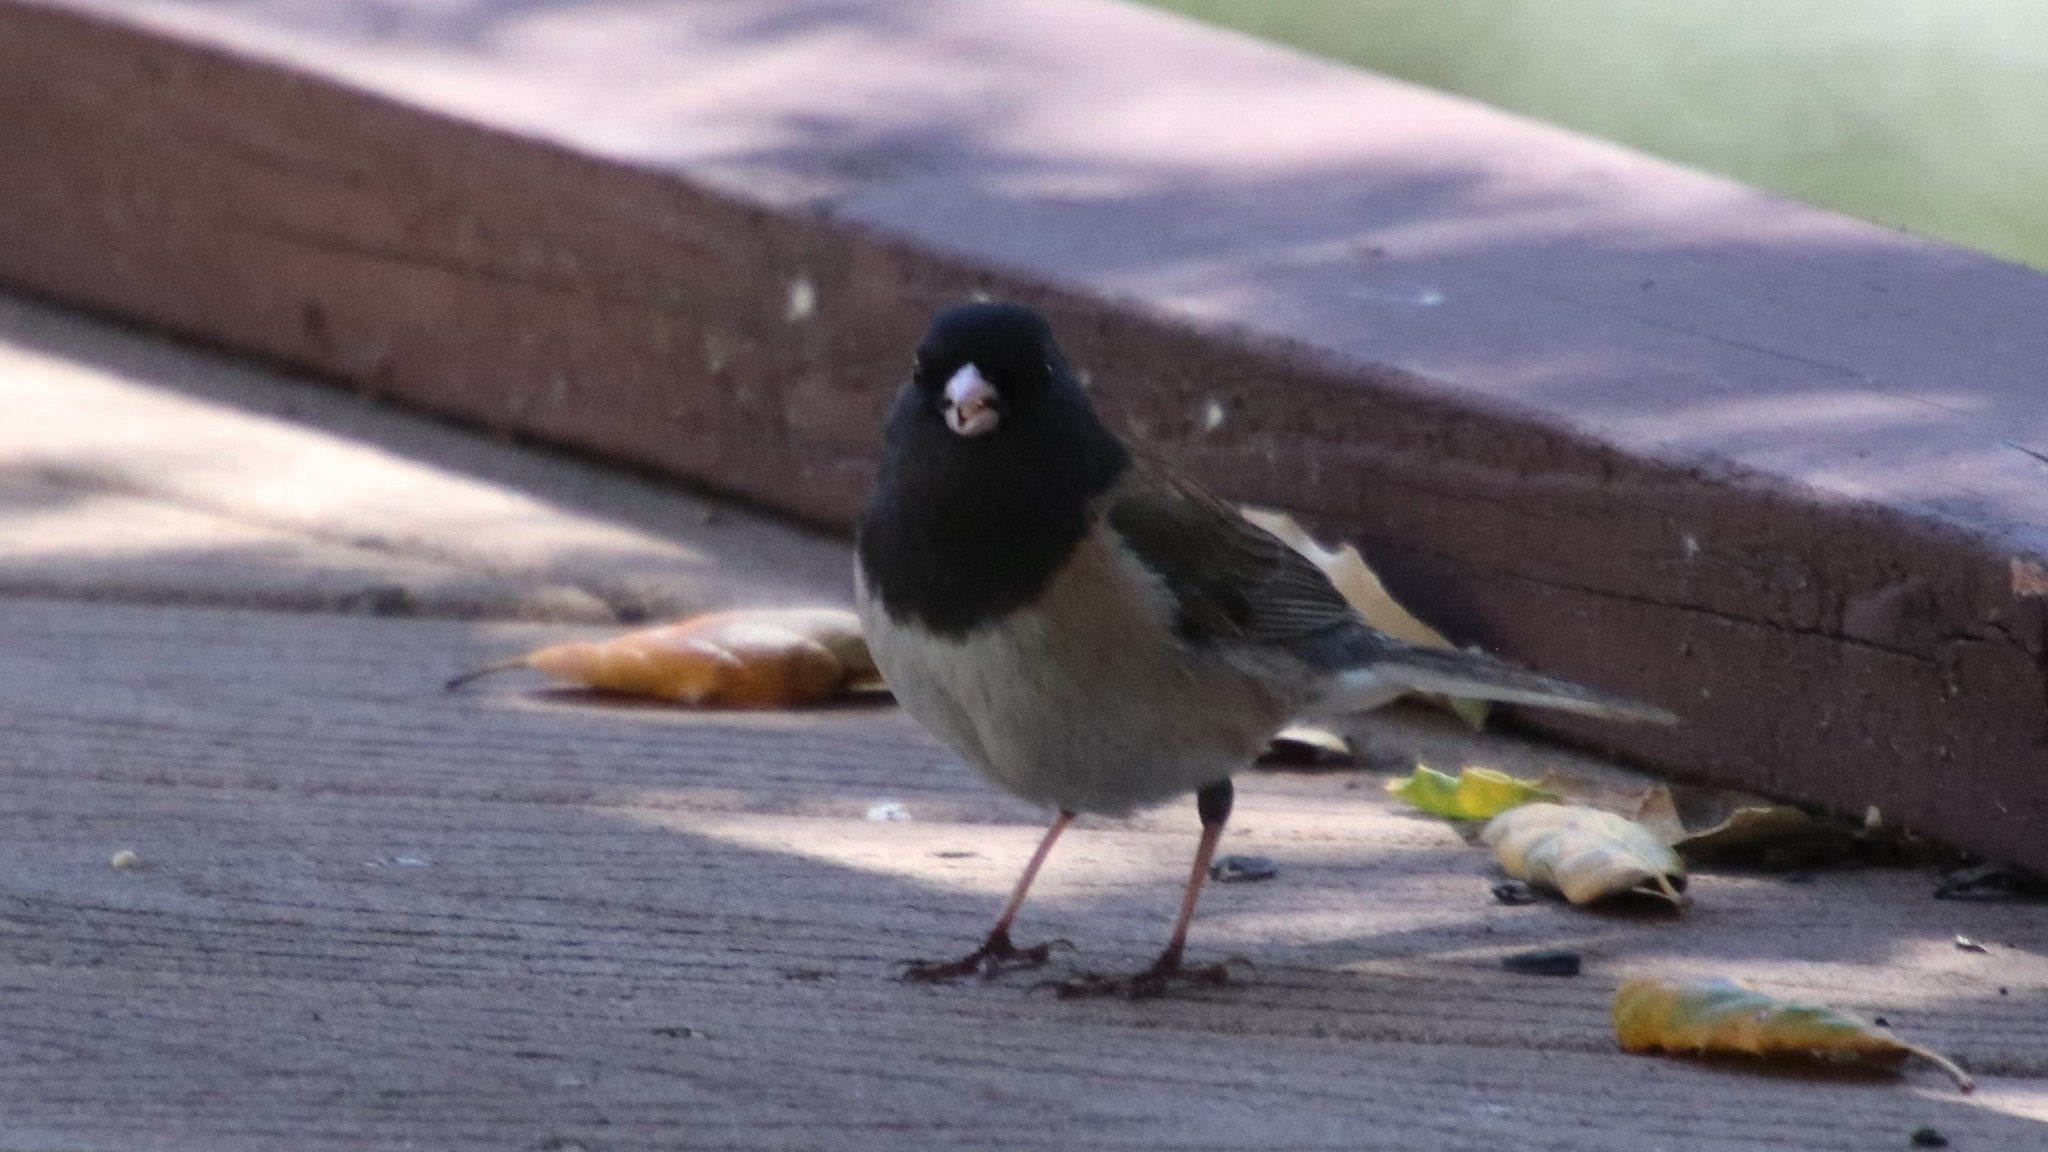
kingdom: Animalia
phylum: Chordata
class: Aves
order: Passeriformes
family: Passerellidae
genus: Junco
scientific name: Junco hyemalis
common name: Dark-eyed junco
